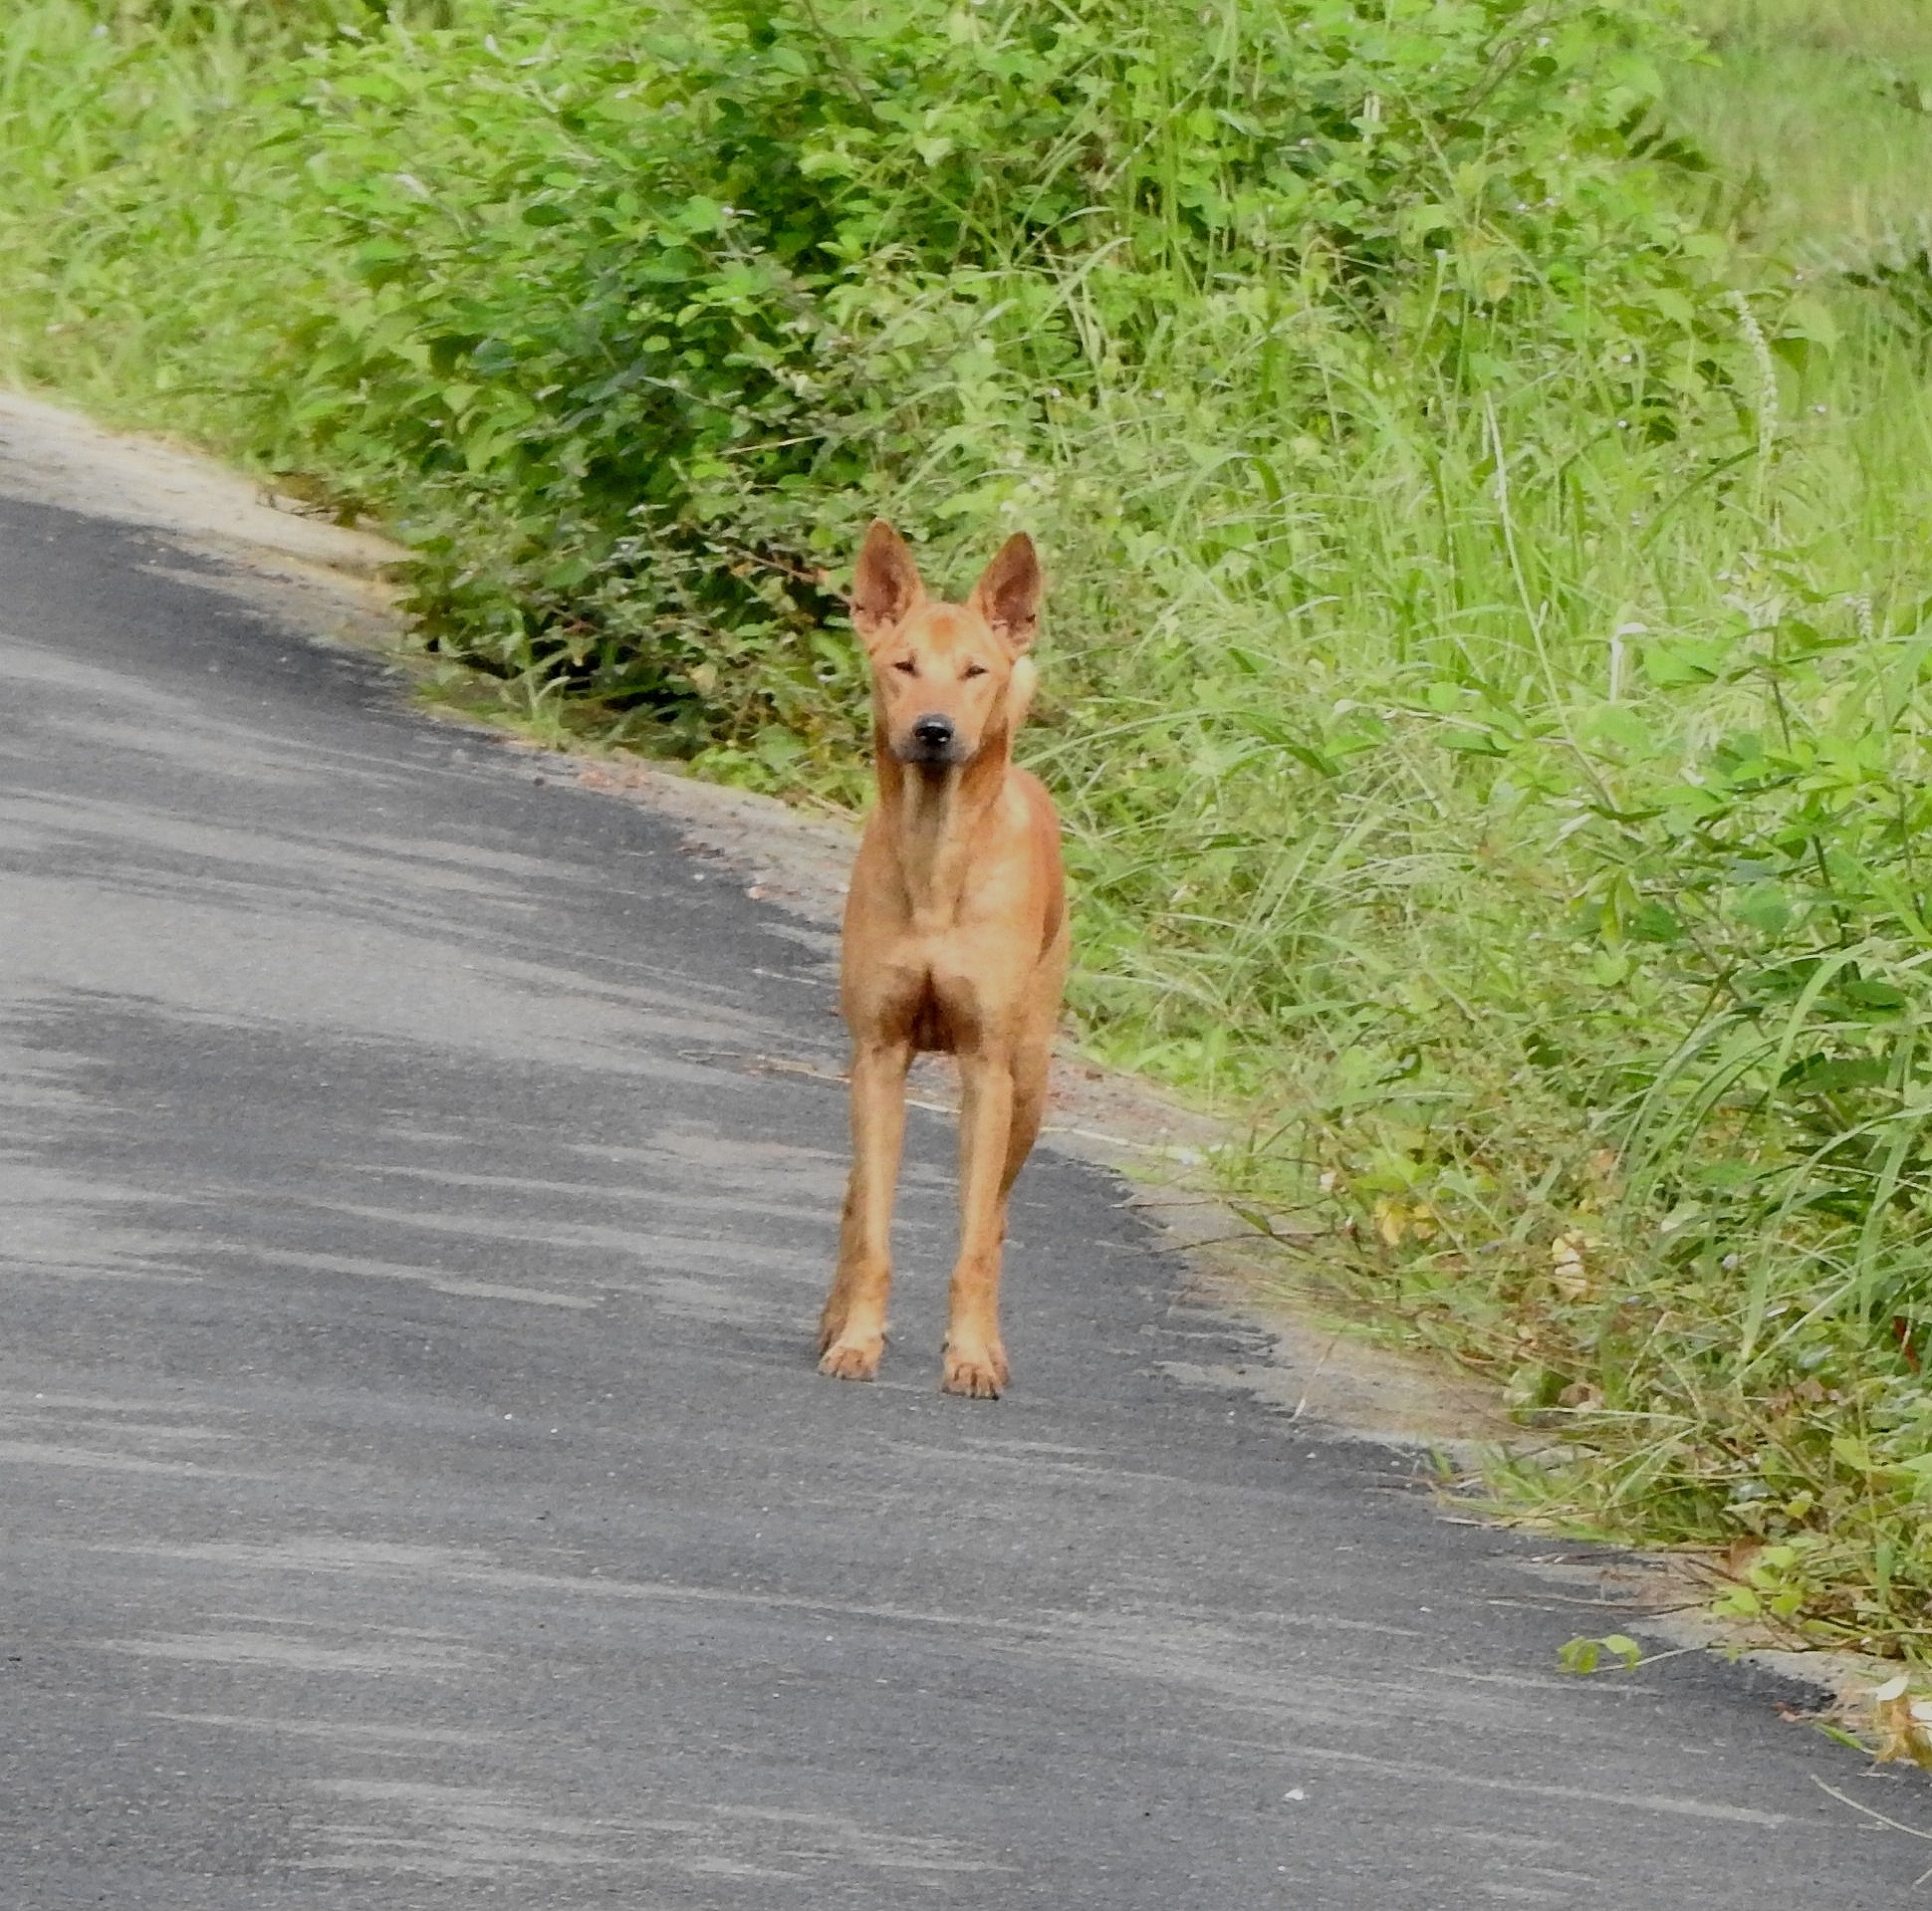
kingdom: Animalia
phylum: Chordata
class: Mammalia
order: Carnivora
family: Canidae
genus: Canis
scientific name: Canis lupus
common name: Gray wolf
